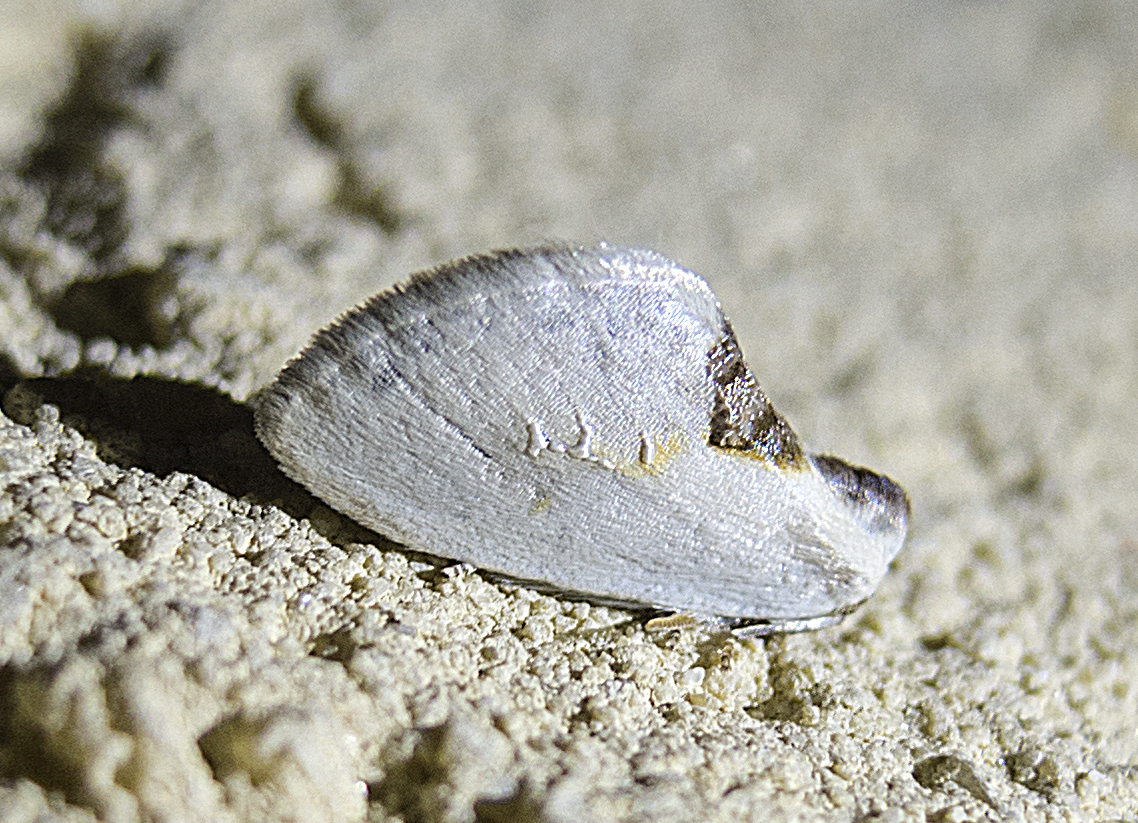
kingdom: Animalia
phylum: Arthropoda
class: Insecta
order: Lepidoptera
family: Drepanidae
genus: Cilix
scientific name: Cilix asiatica
